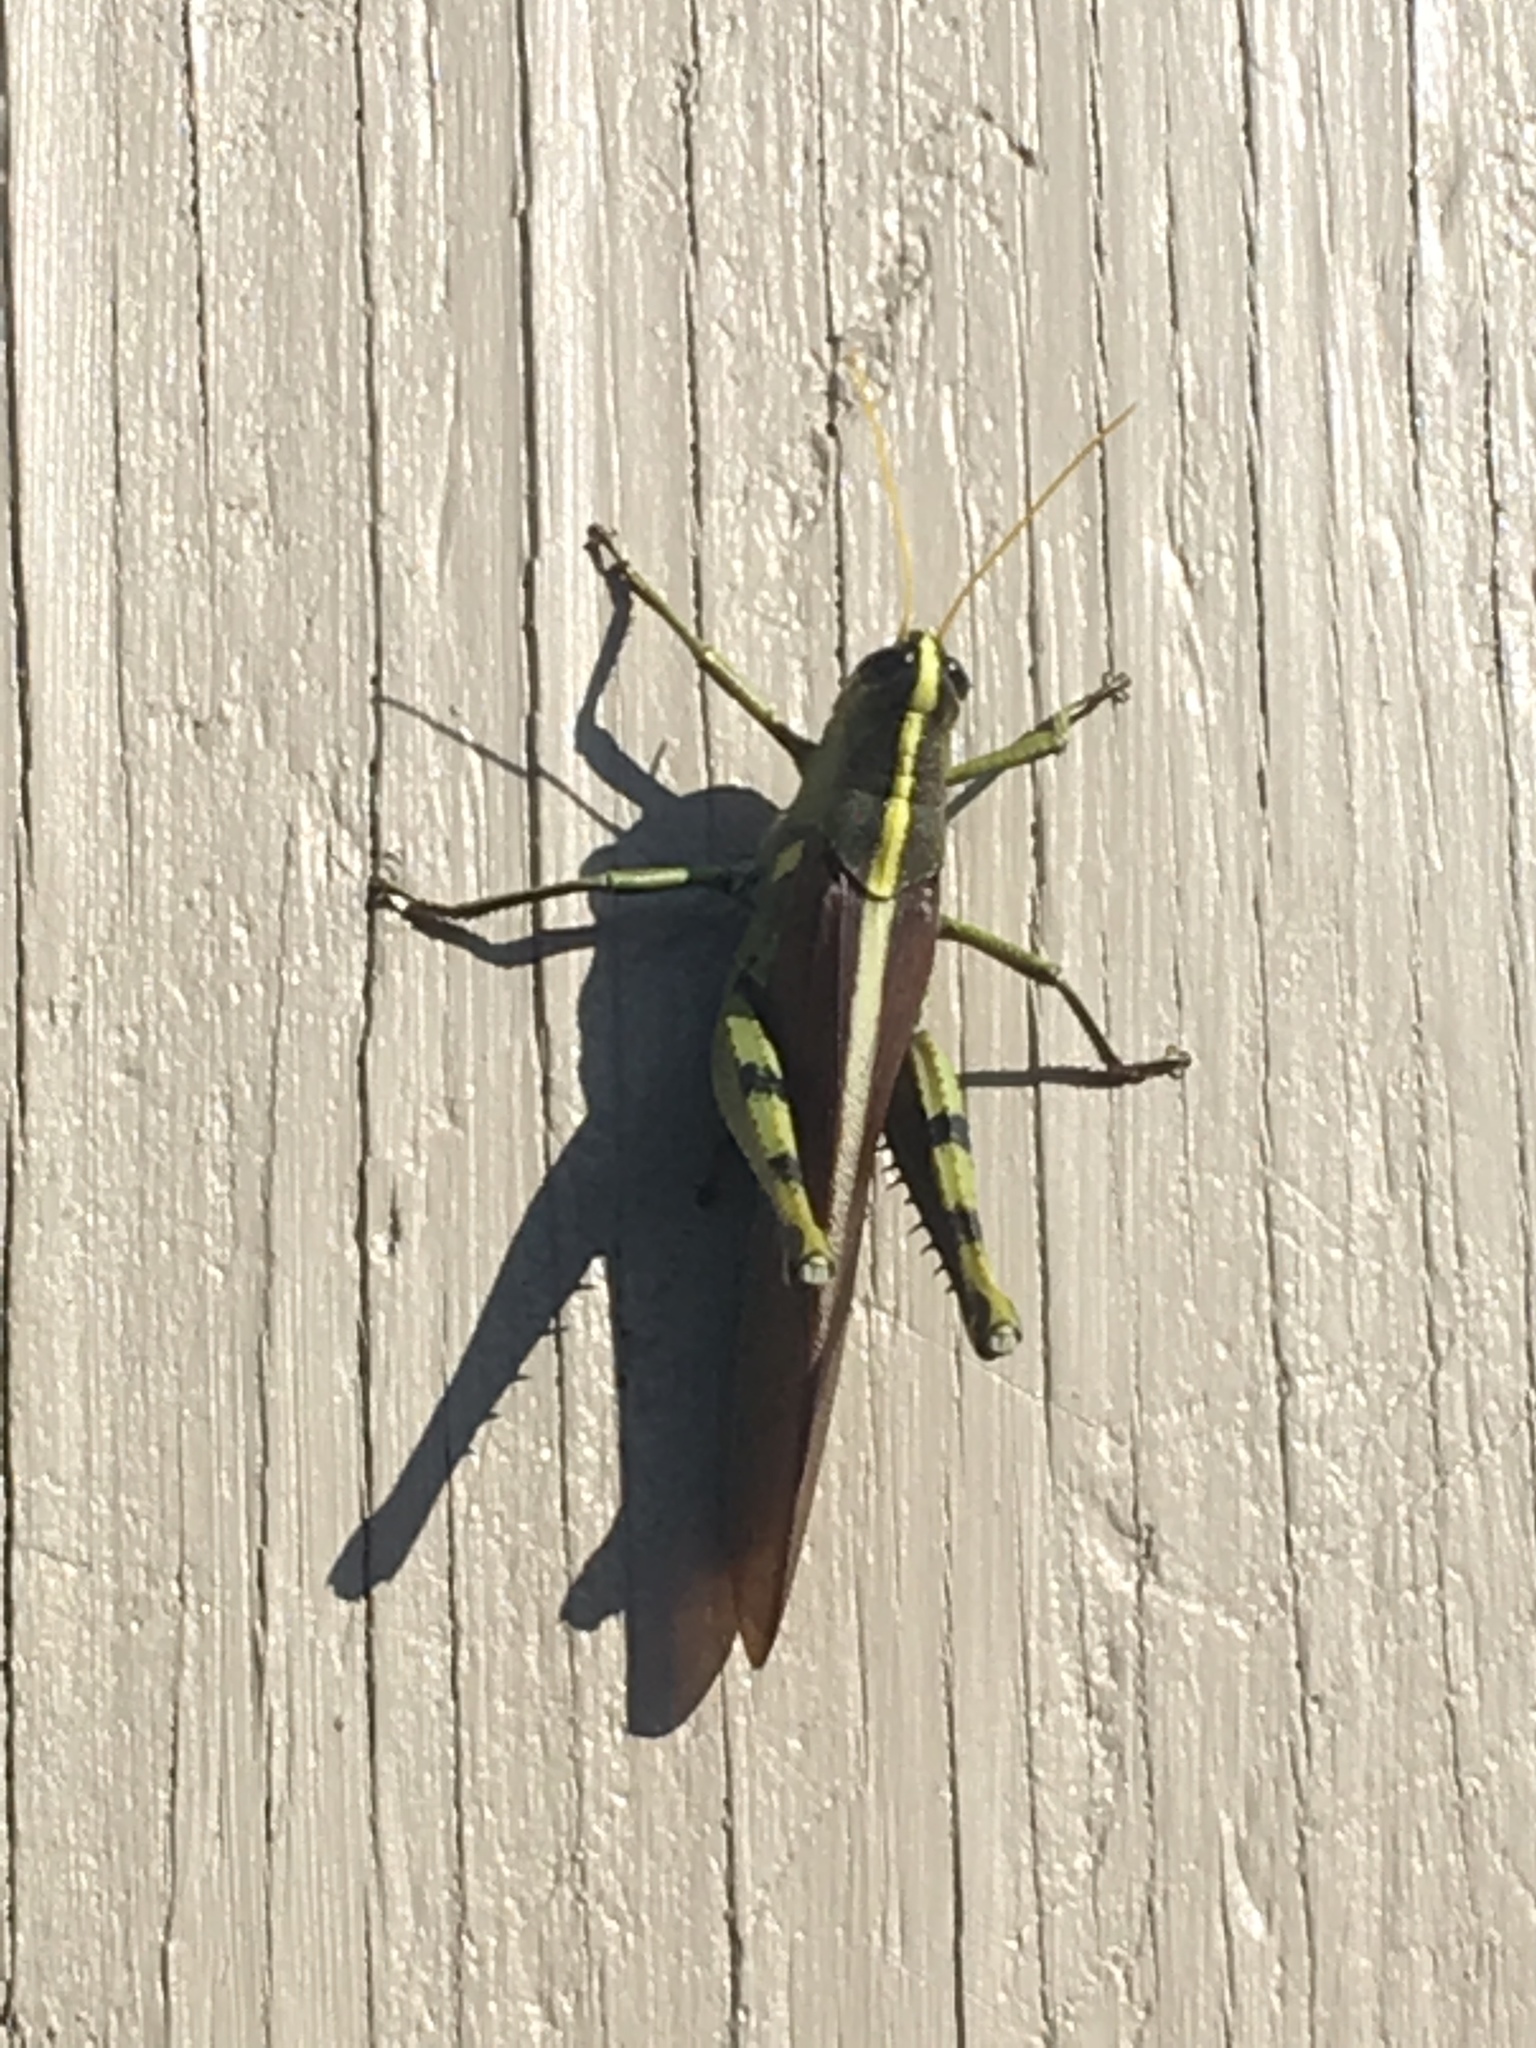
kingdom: Animalia
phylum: Arthropoda
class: Insecta
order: Orthoptera
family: Acrididae
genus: Schistocerca
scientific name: Schistocerca obscura
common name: Obscure bird grasshopper
